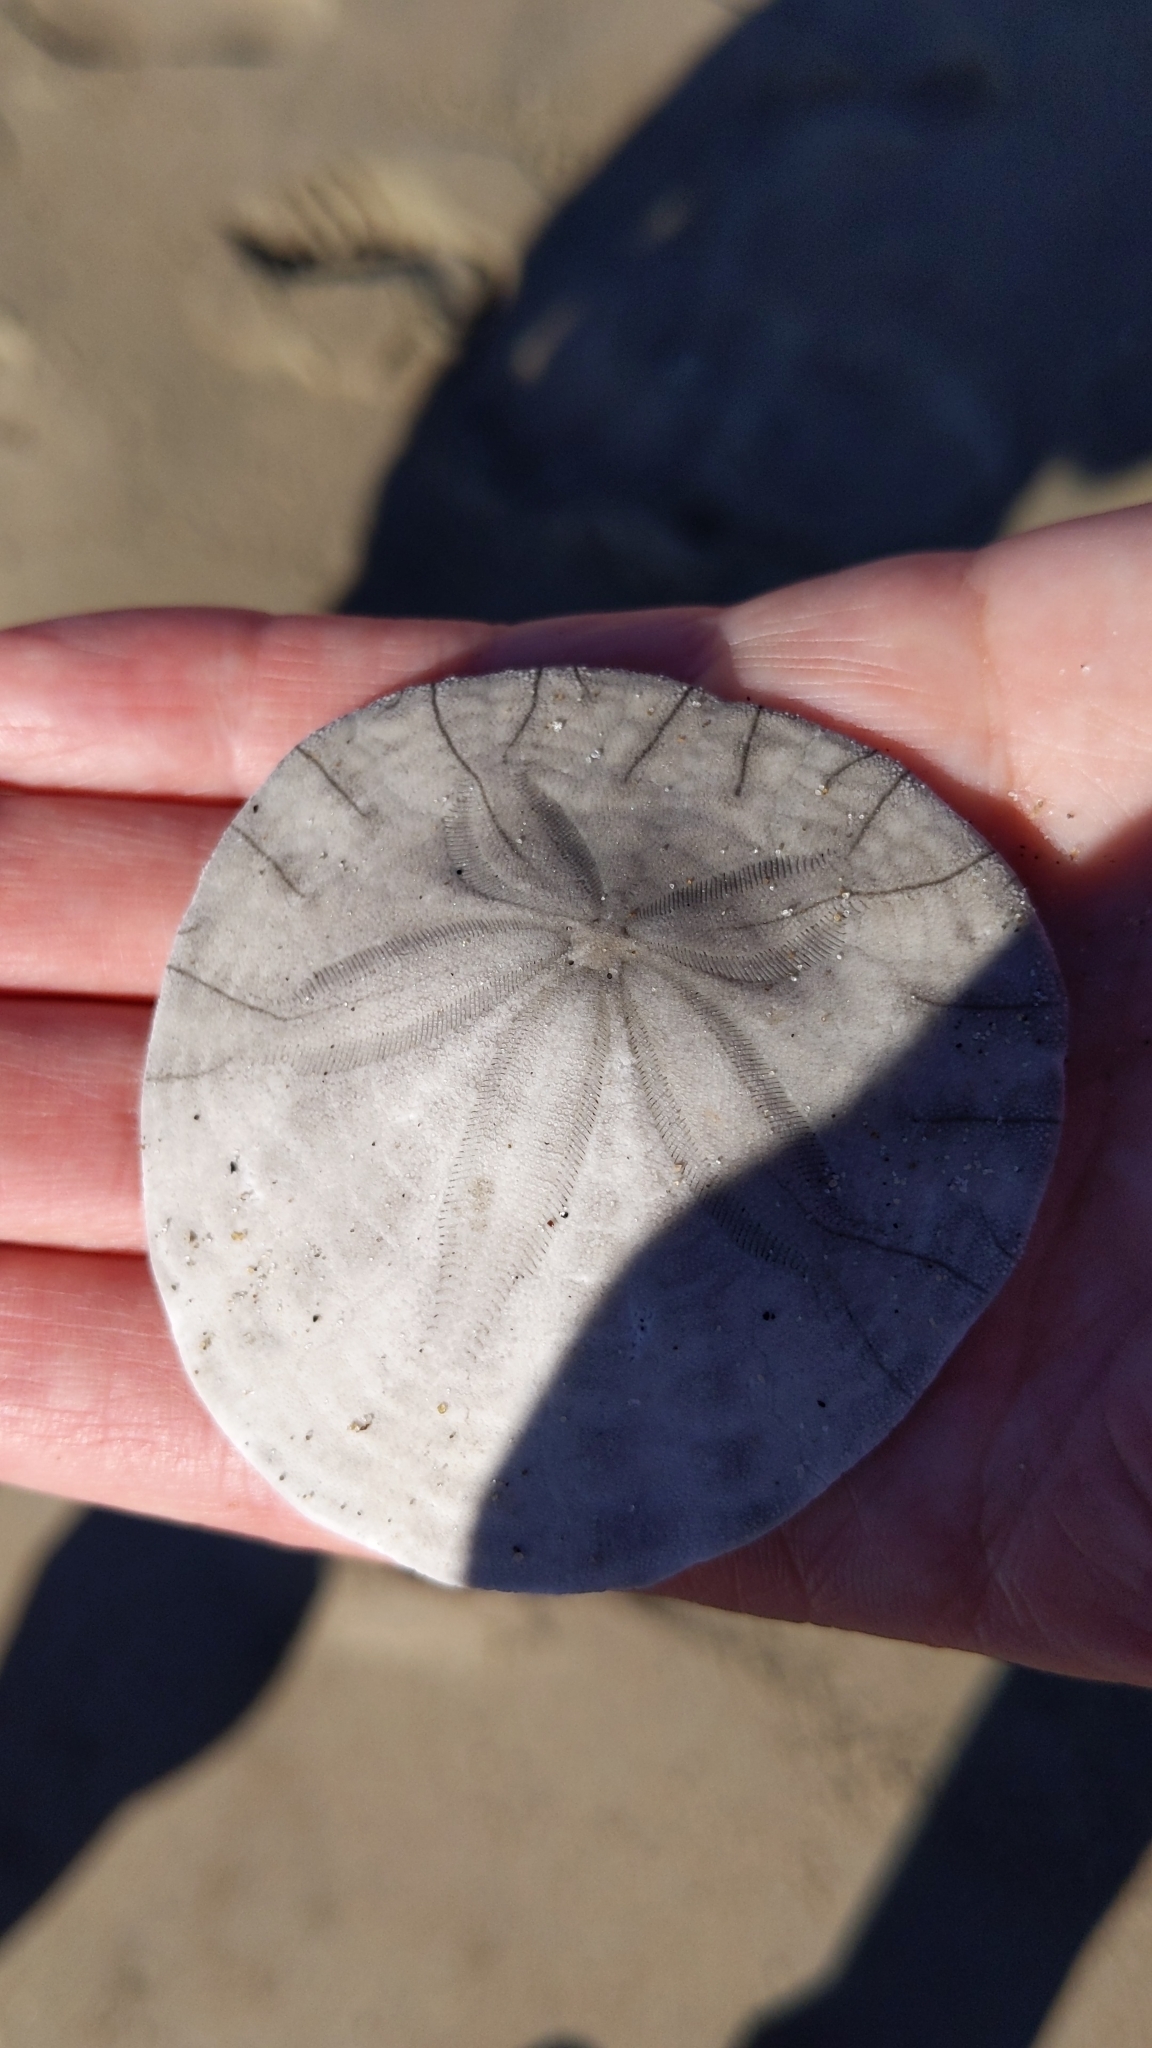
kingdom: Animalia
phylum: Echinodermata
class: Echinoidea
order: Echinolampadacea
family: Dendrasteridae
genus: Dendraster
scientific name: Dendraster excentricus
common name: Eccentric sand dollar sea urchin
